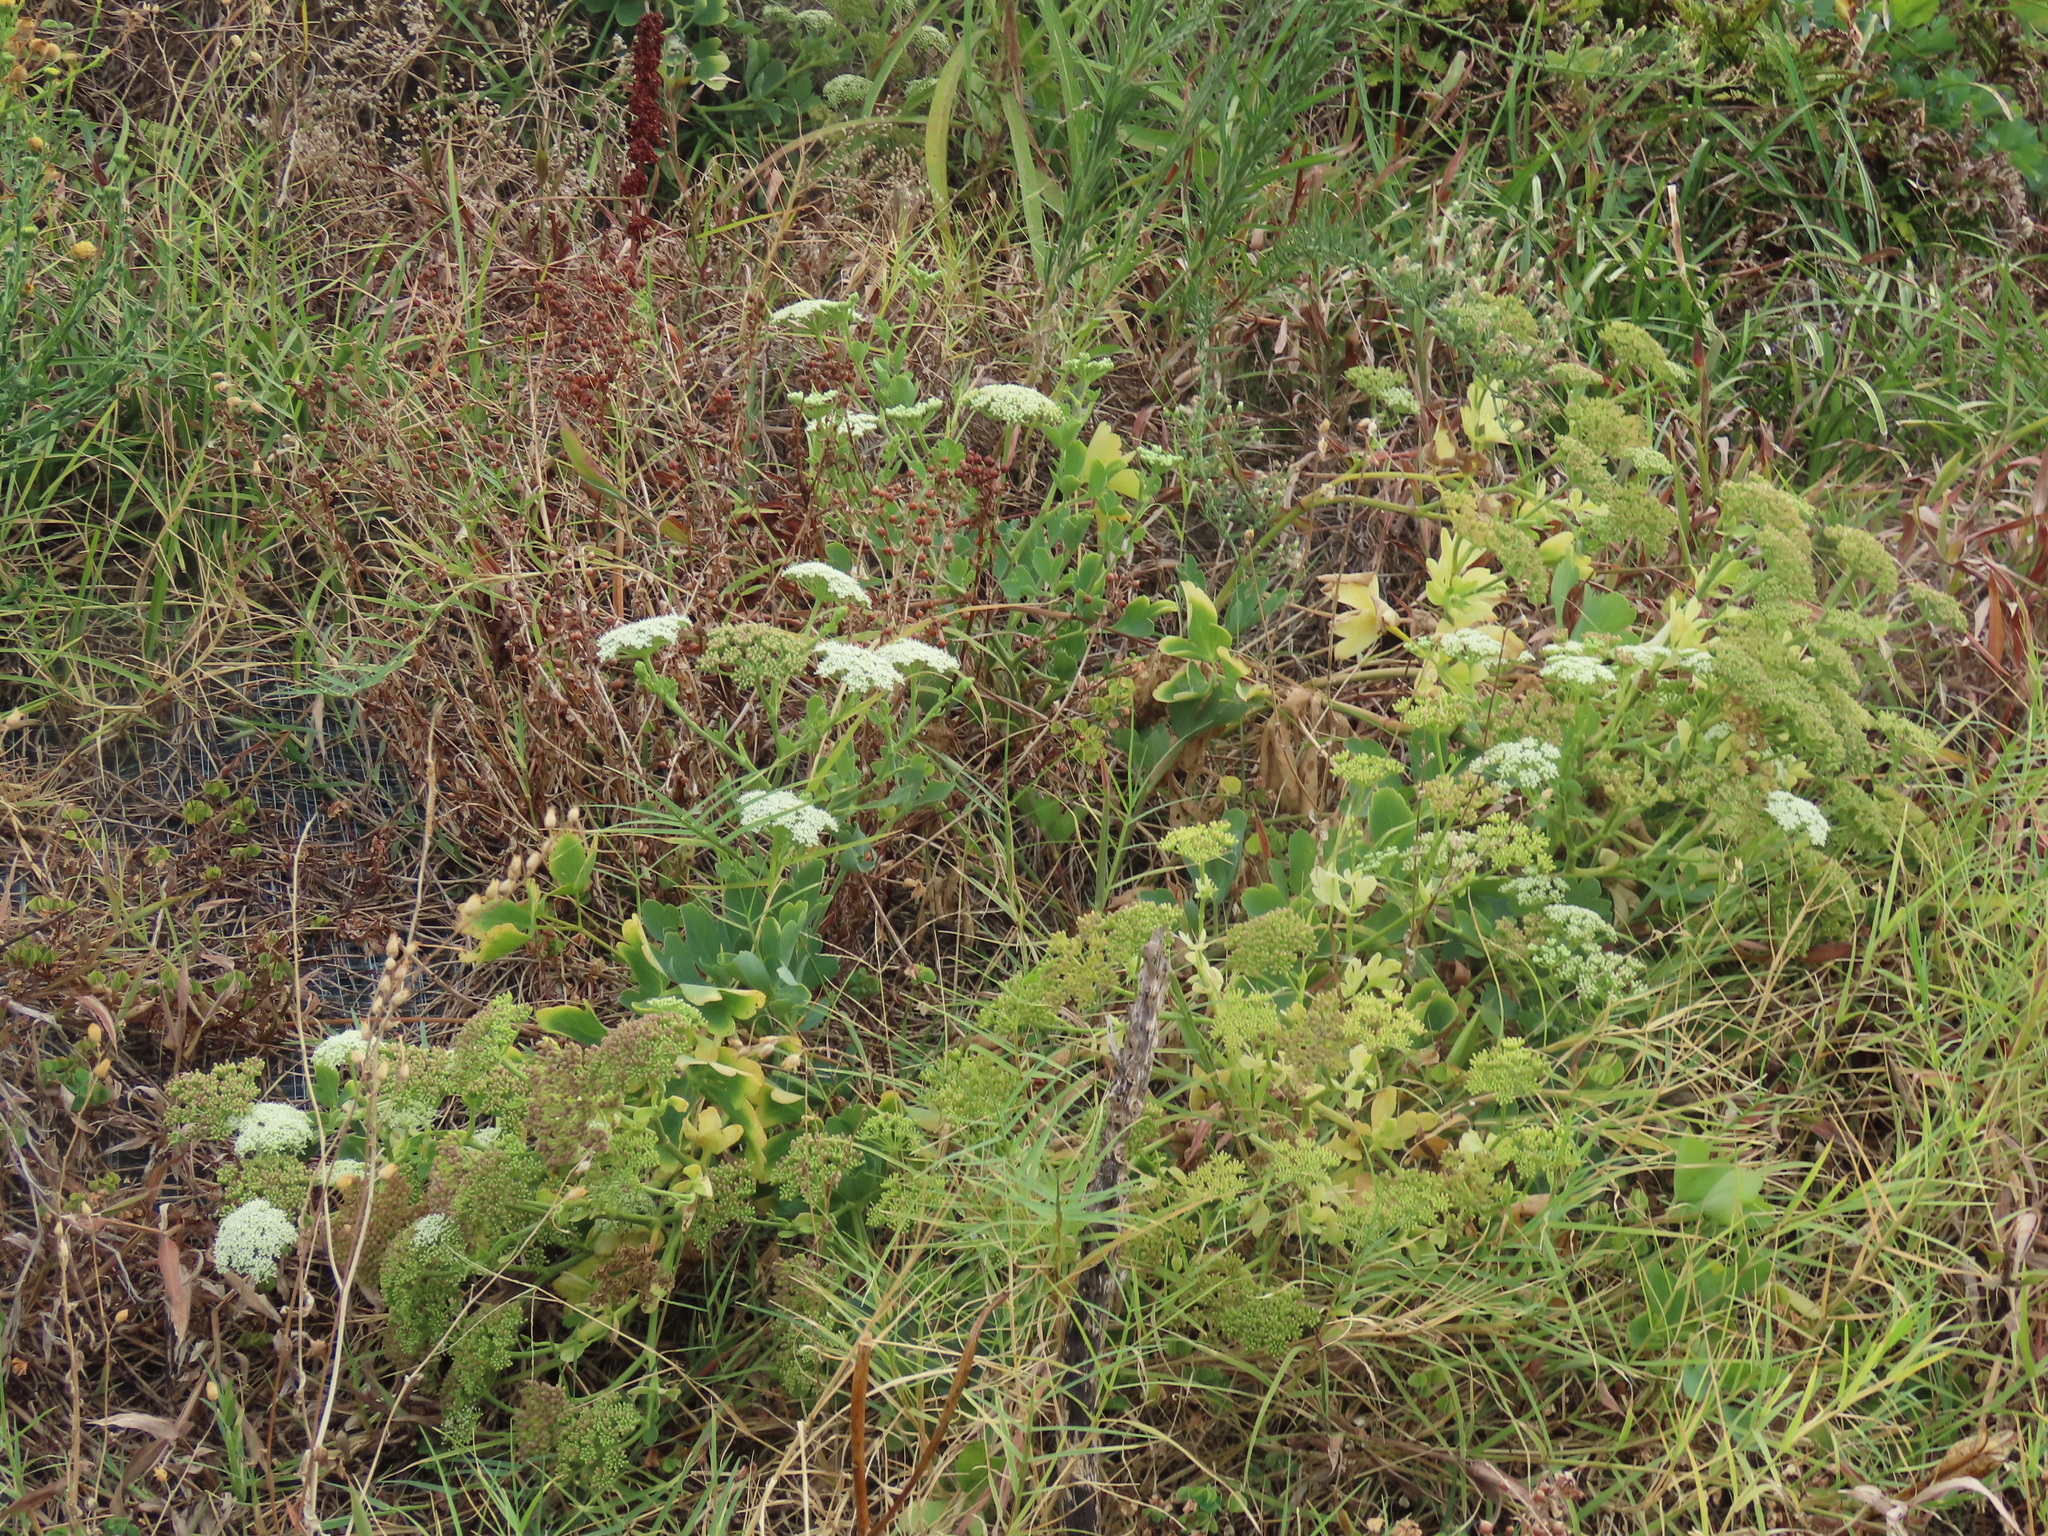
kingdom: Plantae
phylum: Tracheophyta
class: Magnoliopsida
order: Apiales
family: Apiaceae
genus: Peucedanum
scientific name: Peucedanum japonicum
